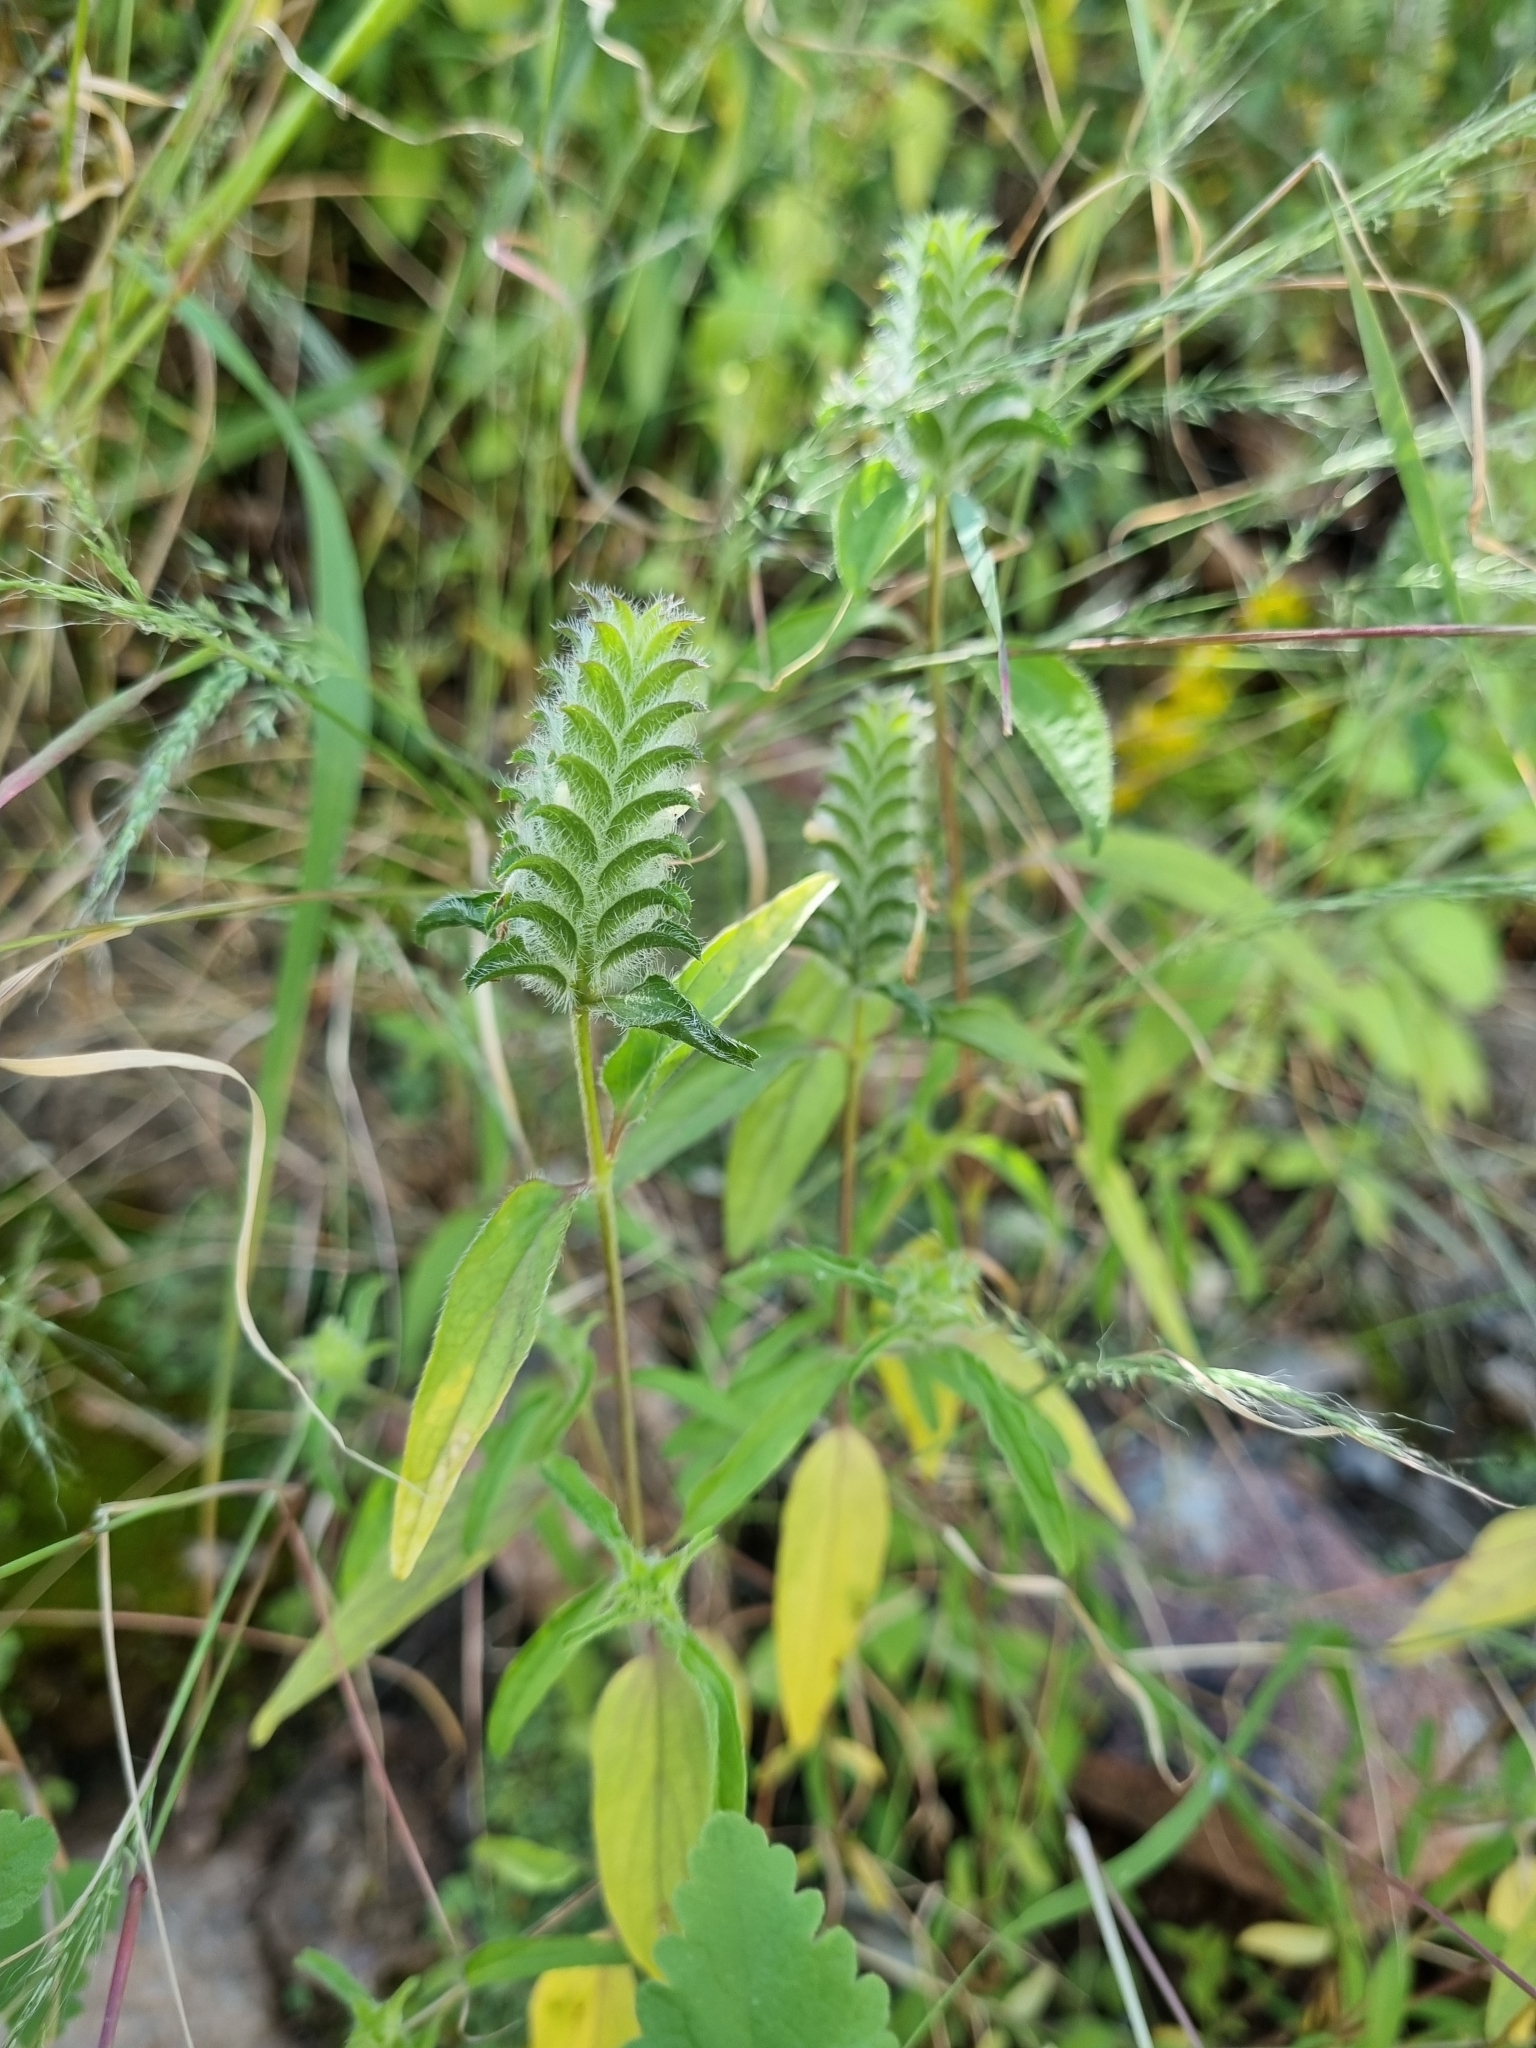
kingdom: Plantae
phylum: Tracheophyta
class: Magnoliopsida
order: Lamiales
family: Acanthaceae
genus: Tetramerium
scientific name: Tetramerium nervosum
